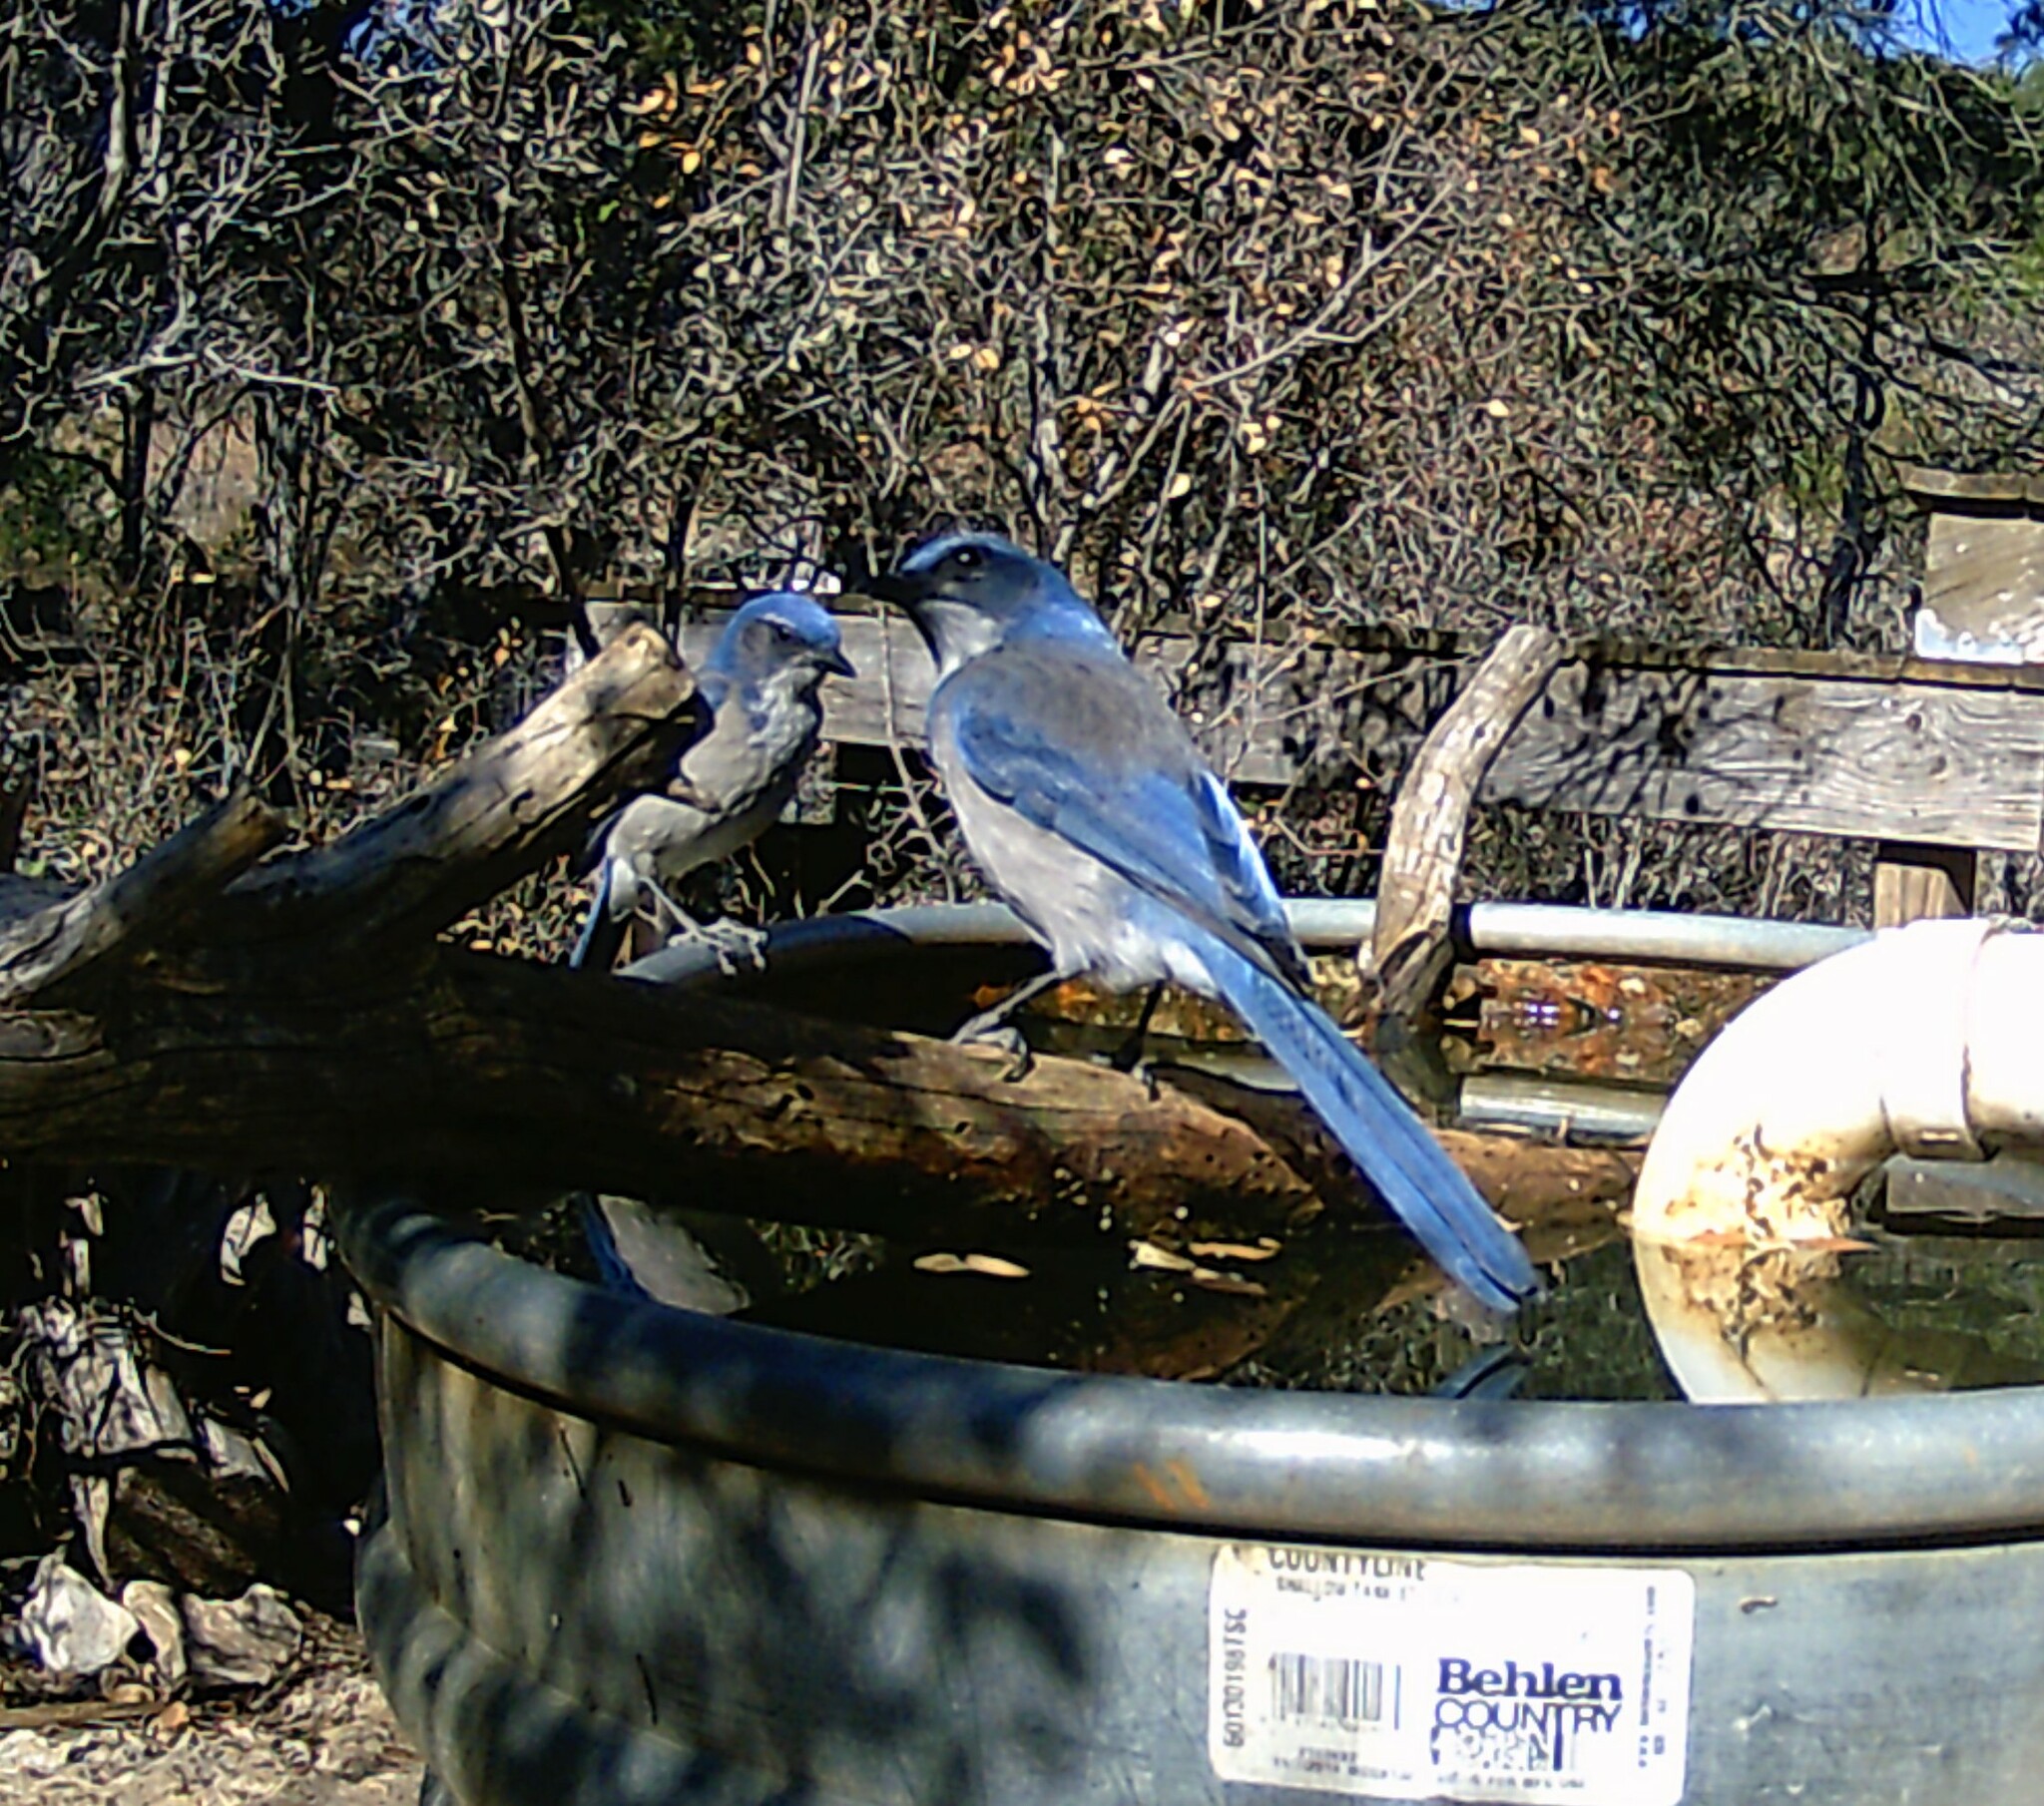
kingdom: Animalia
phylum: Chordata
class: Aves
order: Passeriformes
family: Corvidae
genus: Aphelocoma
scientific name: Aphelocoma woodhouseii
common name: Woodhouse's scrub-jay
